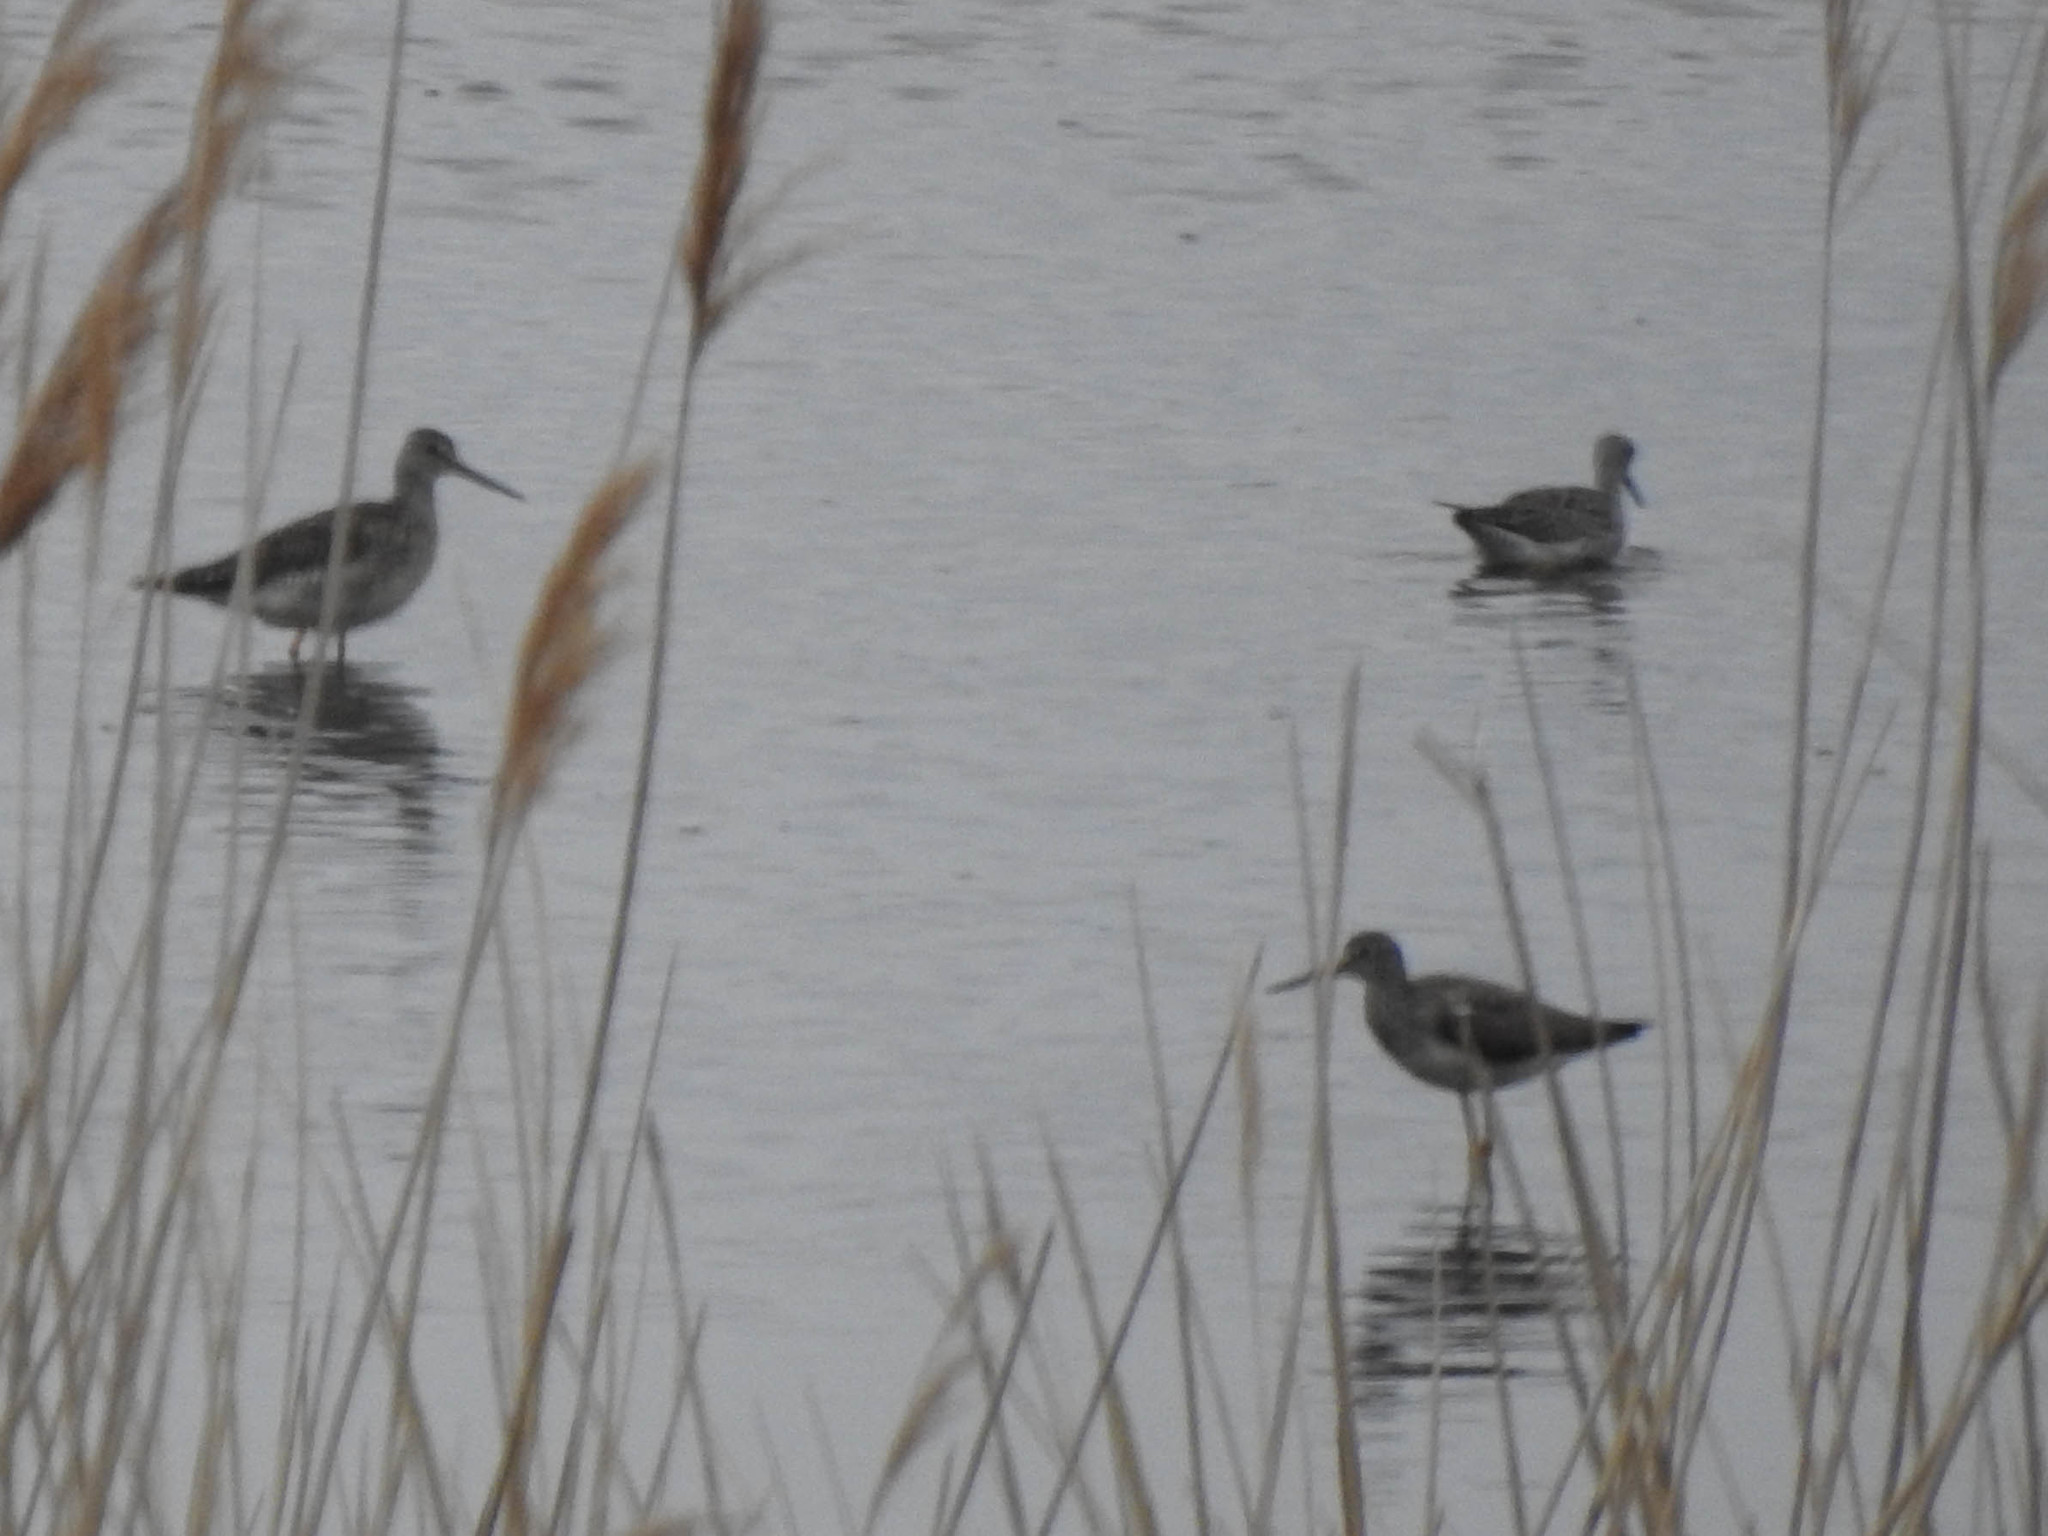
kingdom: Animalia
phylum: Chordata
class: Aves
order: Charadriiformes
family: Scolopacidae
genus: Tringa
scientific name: Tringa melanoleuca
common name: Greater yellowlegs
